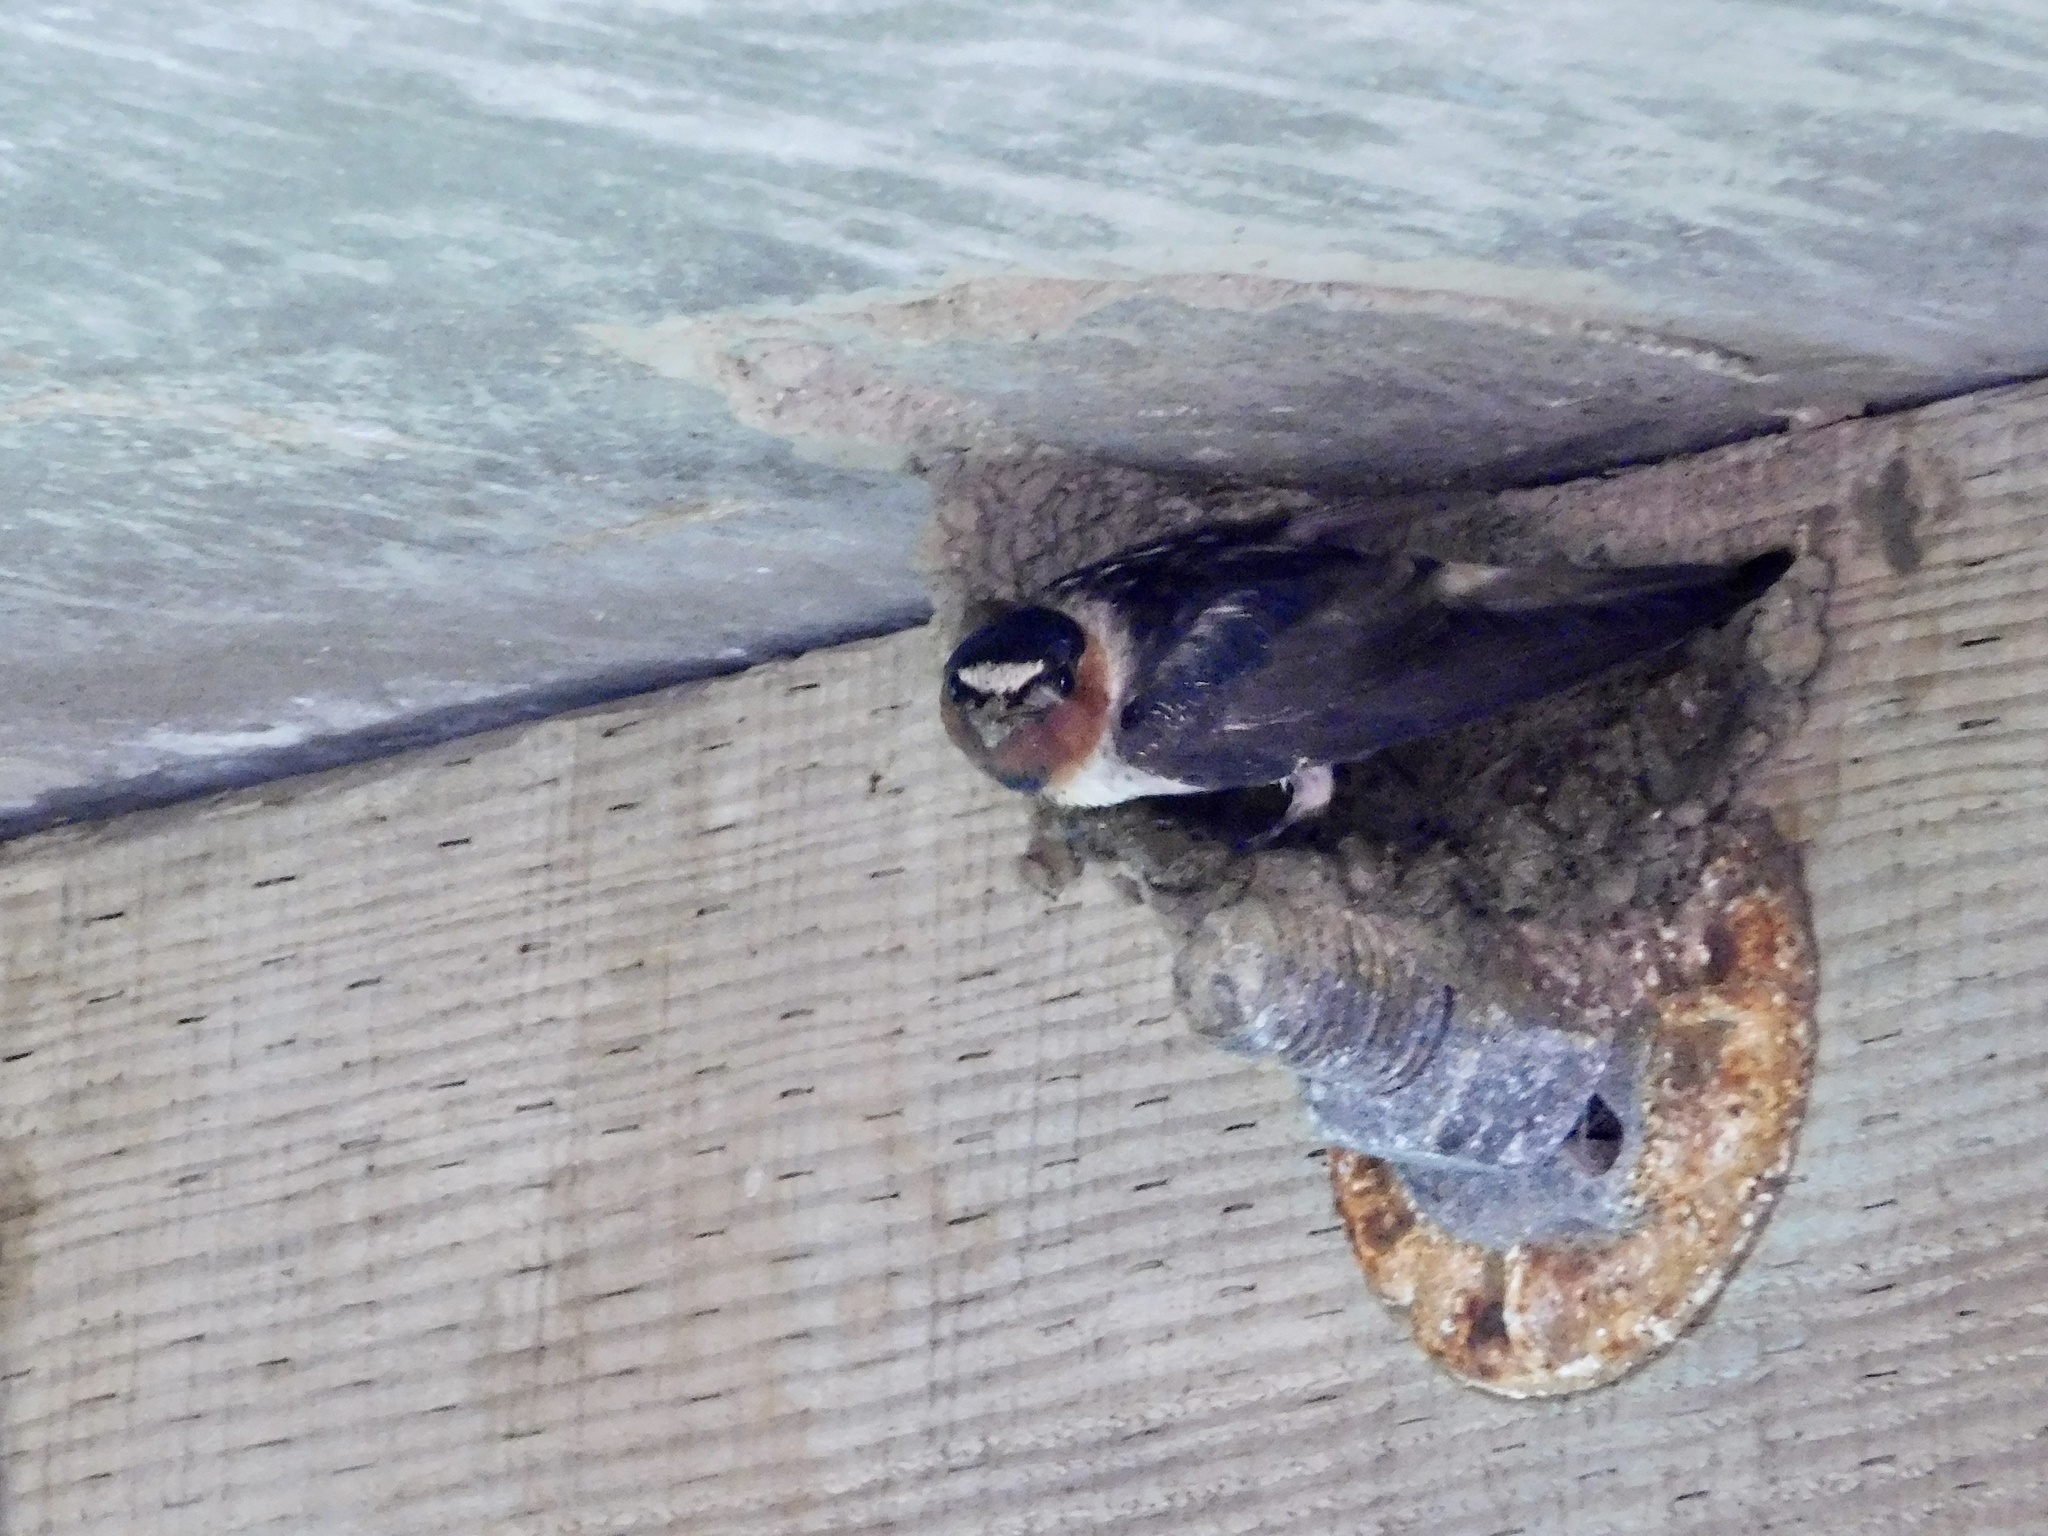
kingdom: Animalia
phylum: Chordata
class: Aves
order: Passeriformes
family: Hirundinidae
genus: Petrochelidon
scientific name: Petrochelidon pyrrhonota
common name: American cliff swallow
